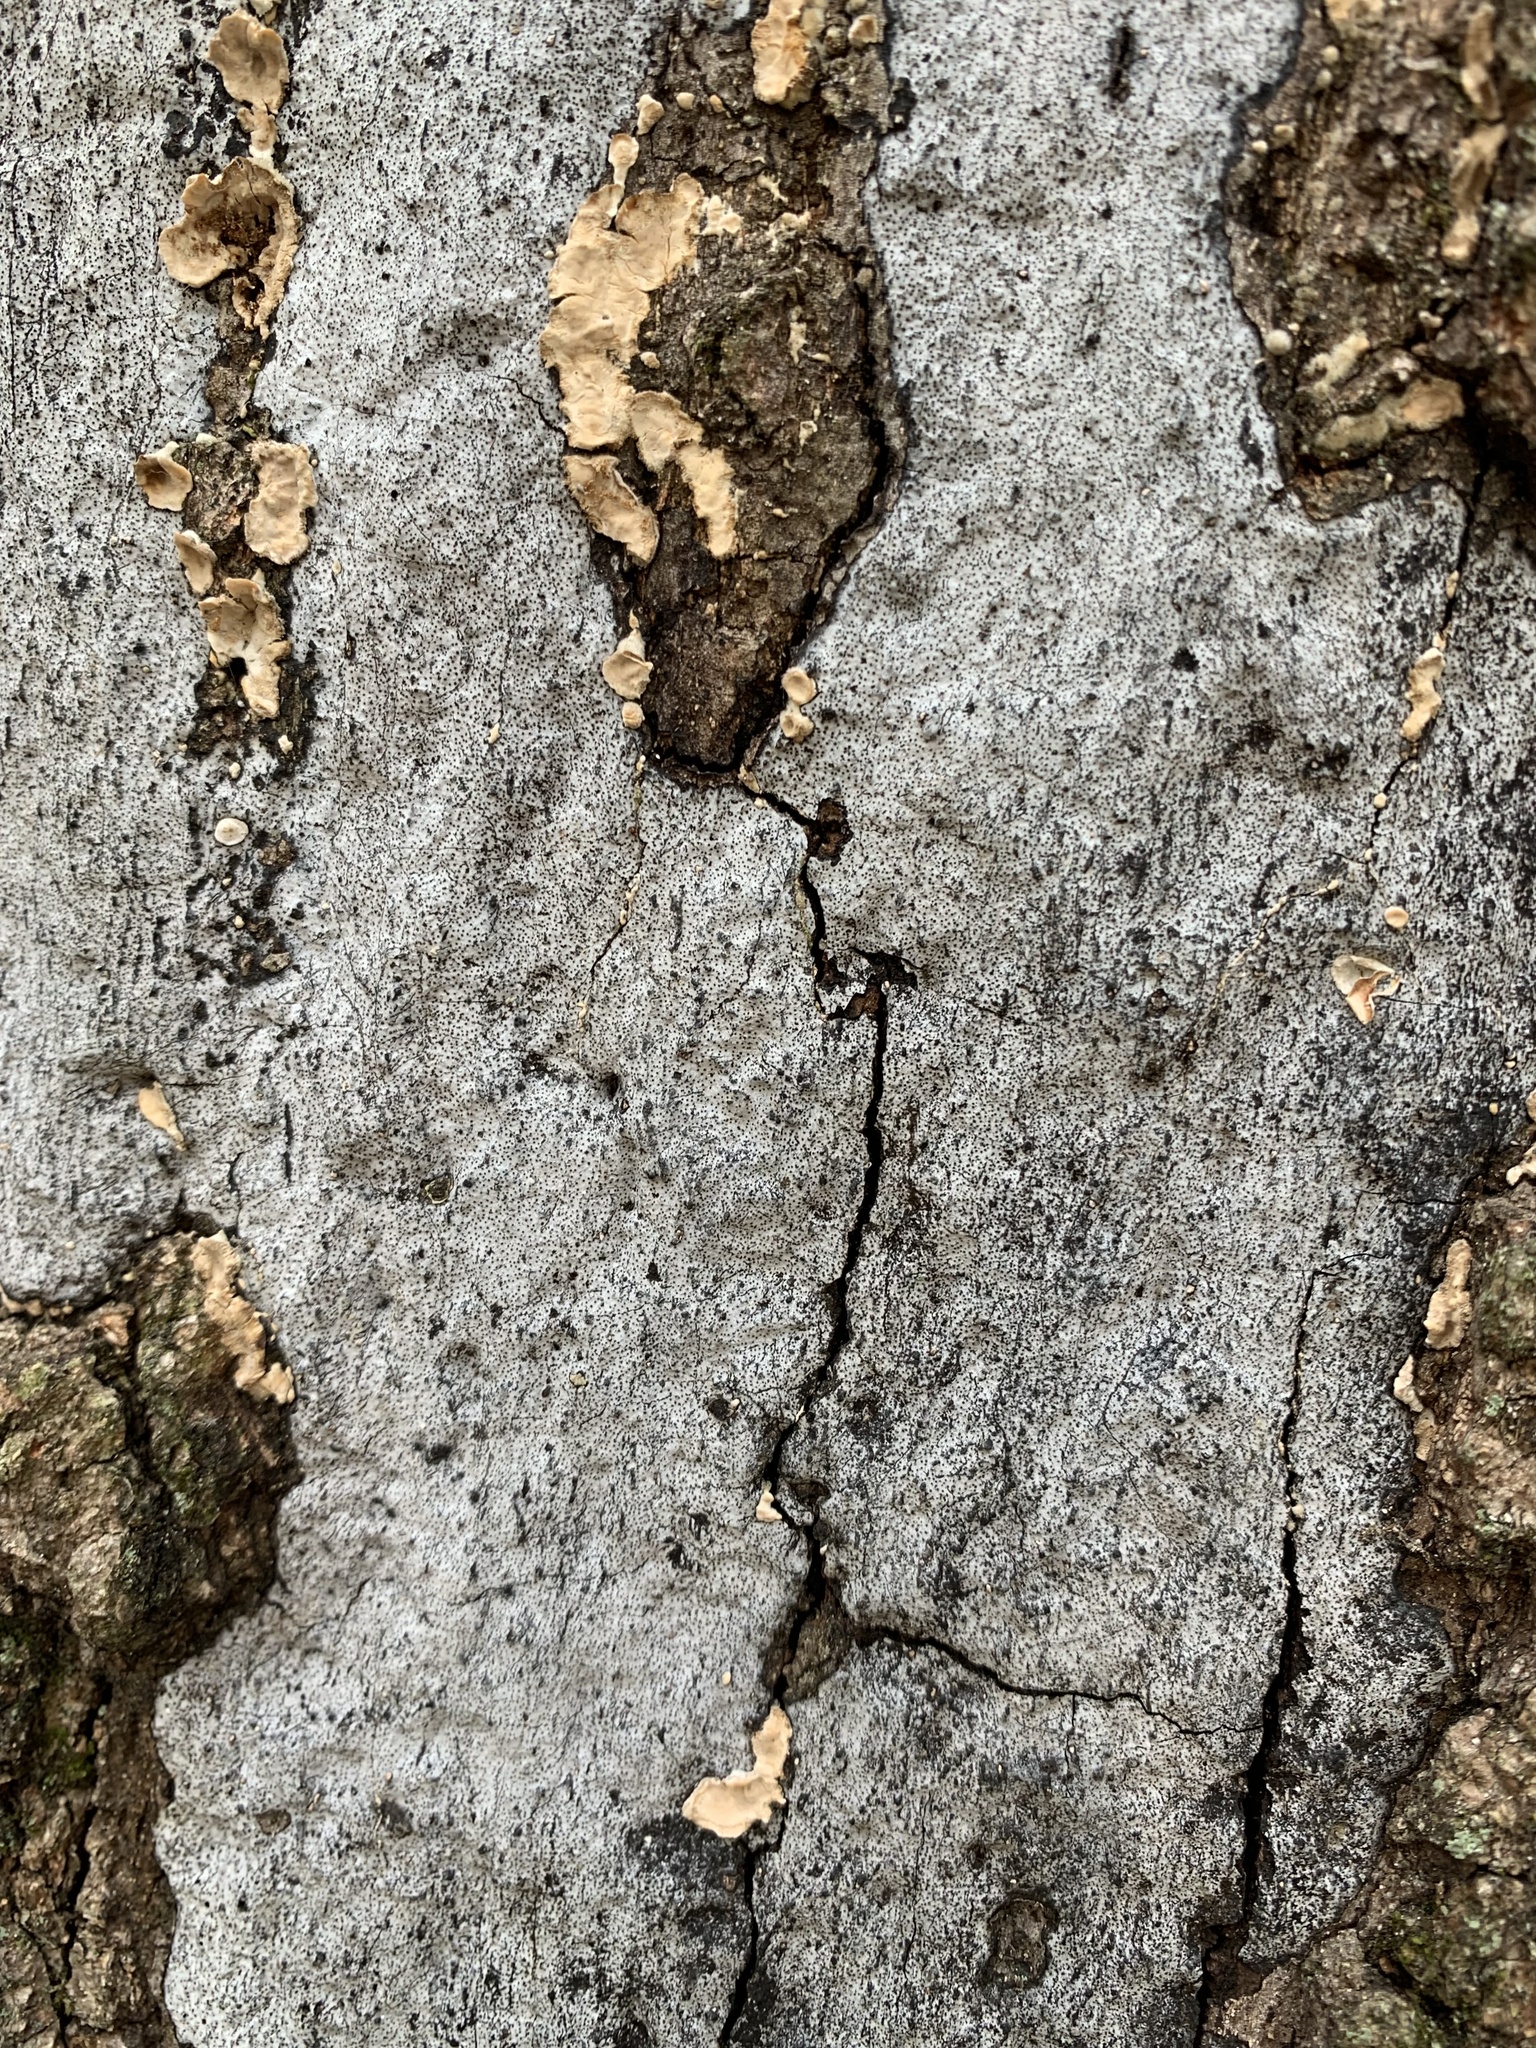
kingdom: Fungi
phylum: Ascomycota
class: Sordariomycetes
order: Xylariales
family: Graphostromataceae
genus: Biscogniauxia
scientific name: Biscogniauxia atropunctata
